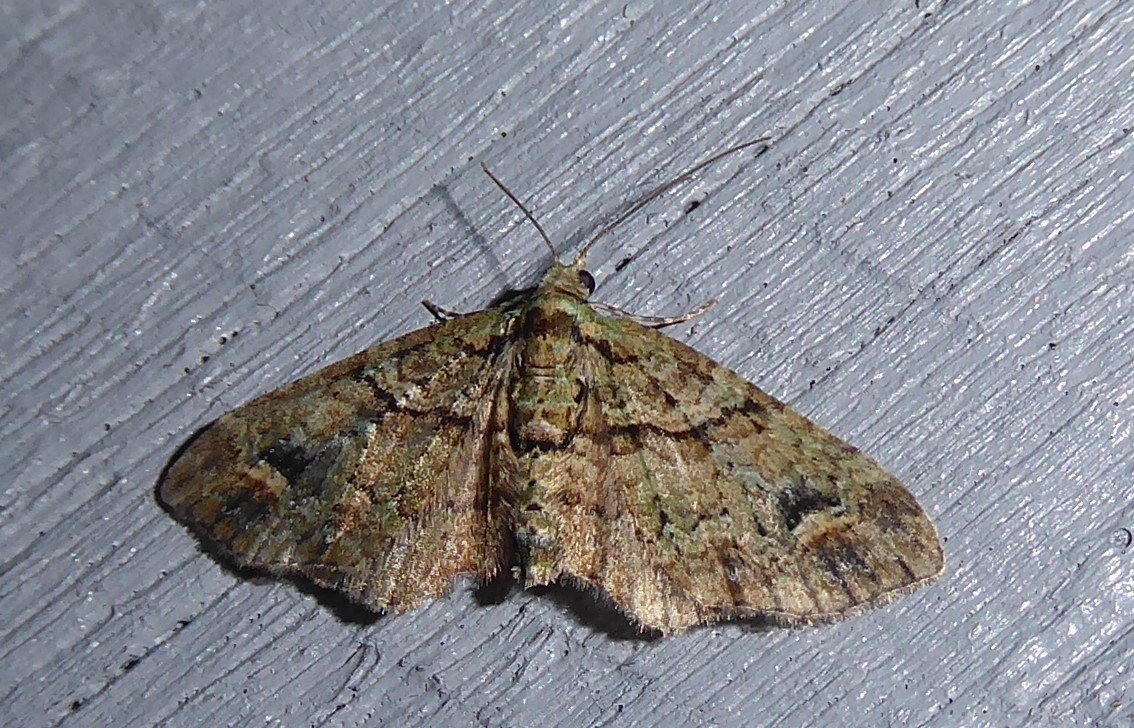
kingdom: Animalia
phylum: Arthropoda
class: Insecta
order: Lepidoptera
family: Geometridae
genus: Idaea
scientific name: Idaea mutanda
